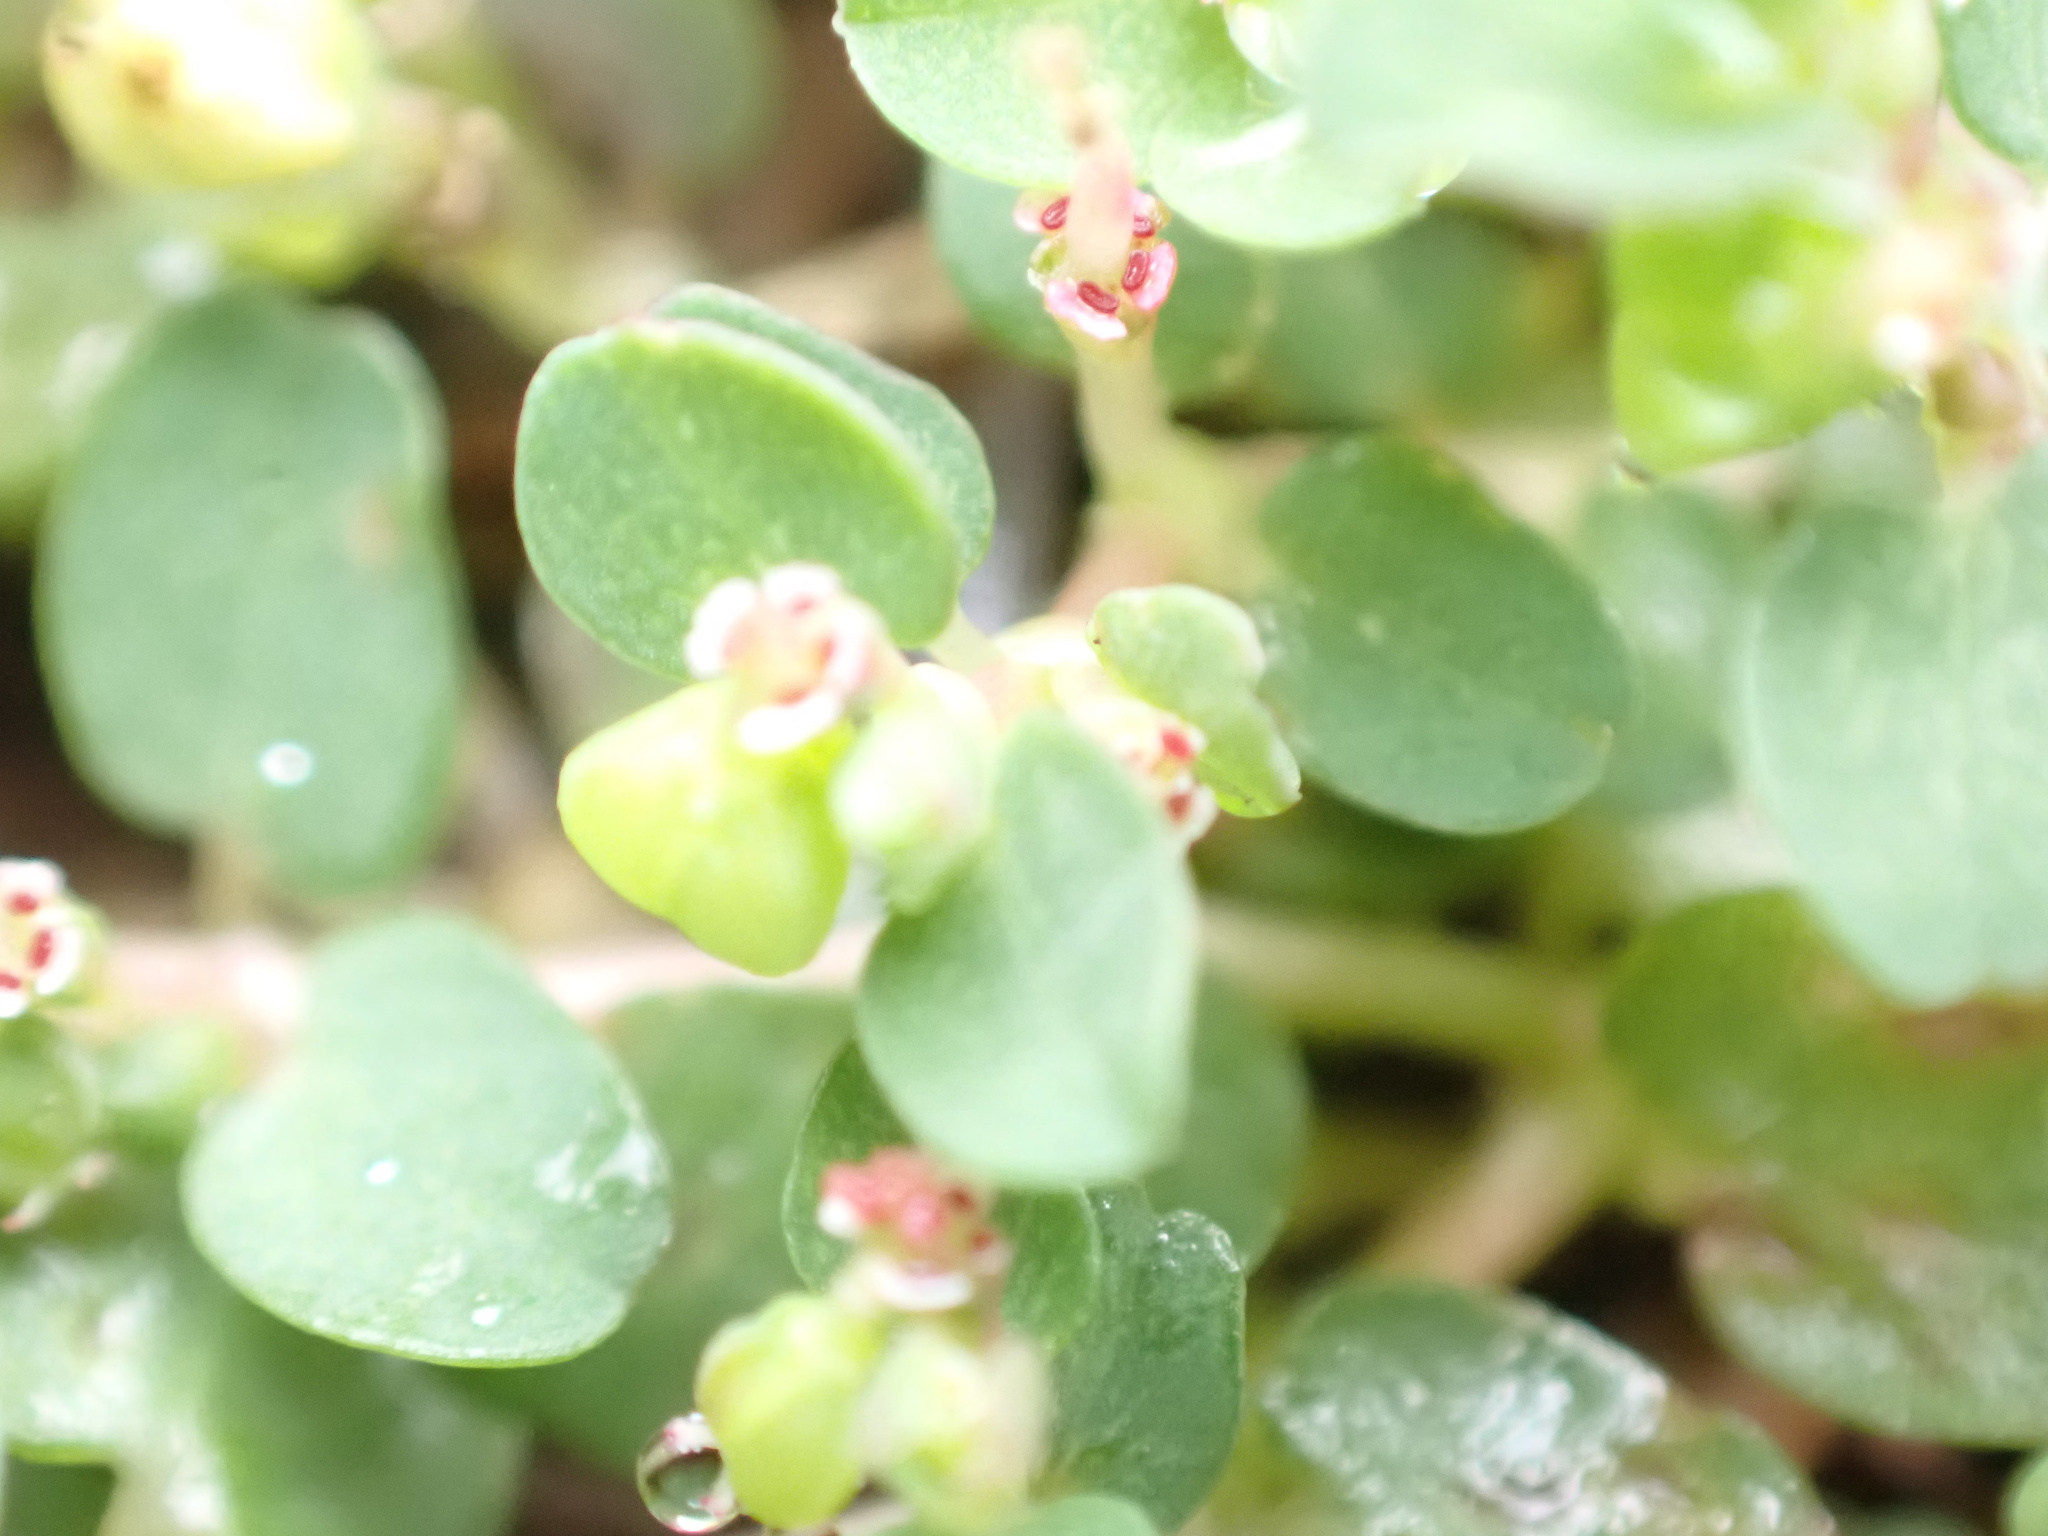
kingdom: Plantae
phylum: Tracheophyta
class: Magnoliopsida
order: Malpighiales
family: Euphorbiaceae
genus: Euphorbia
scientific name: Euphorbia serpens
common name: Matted sandmat
